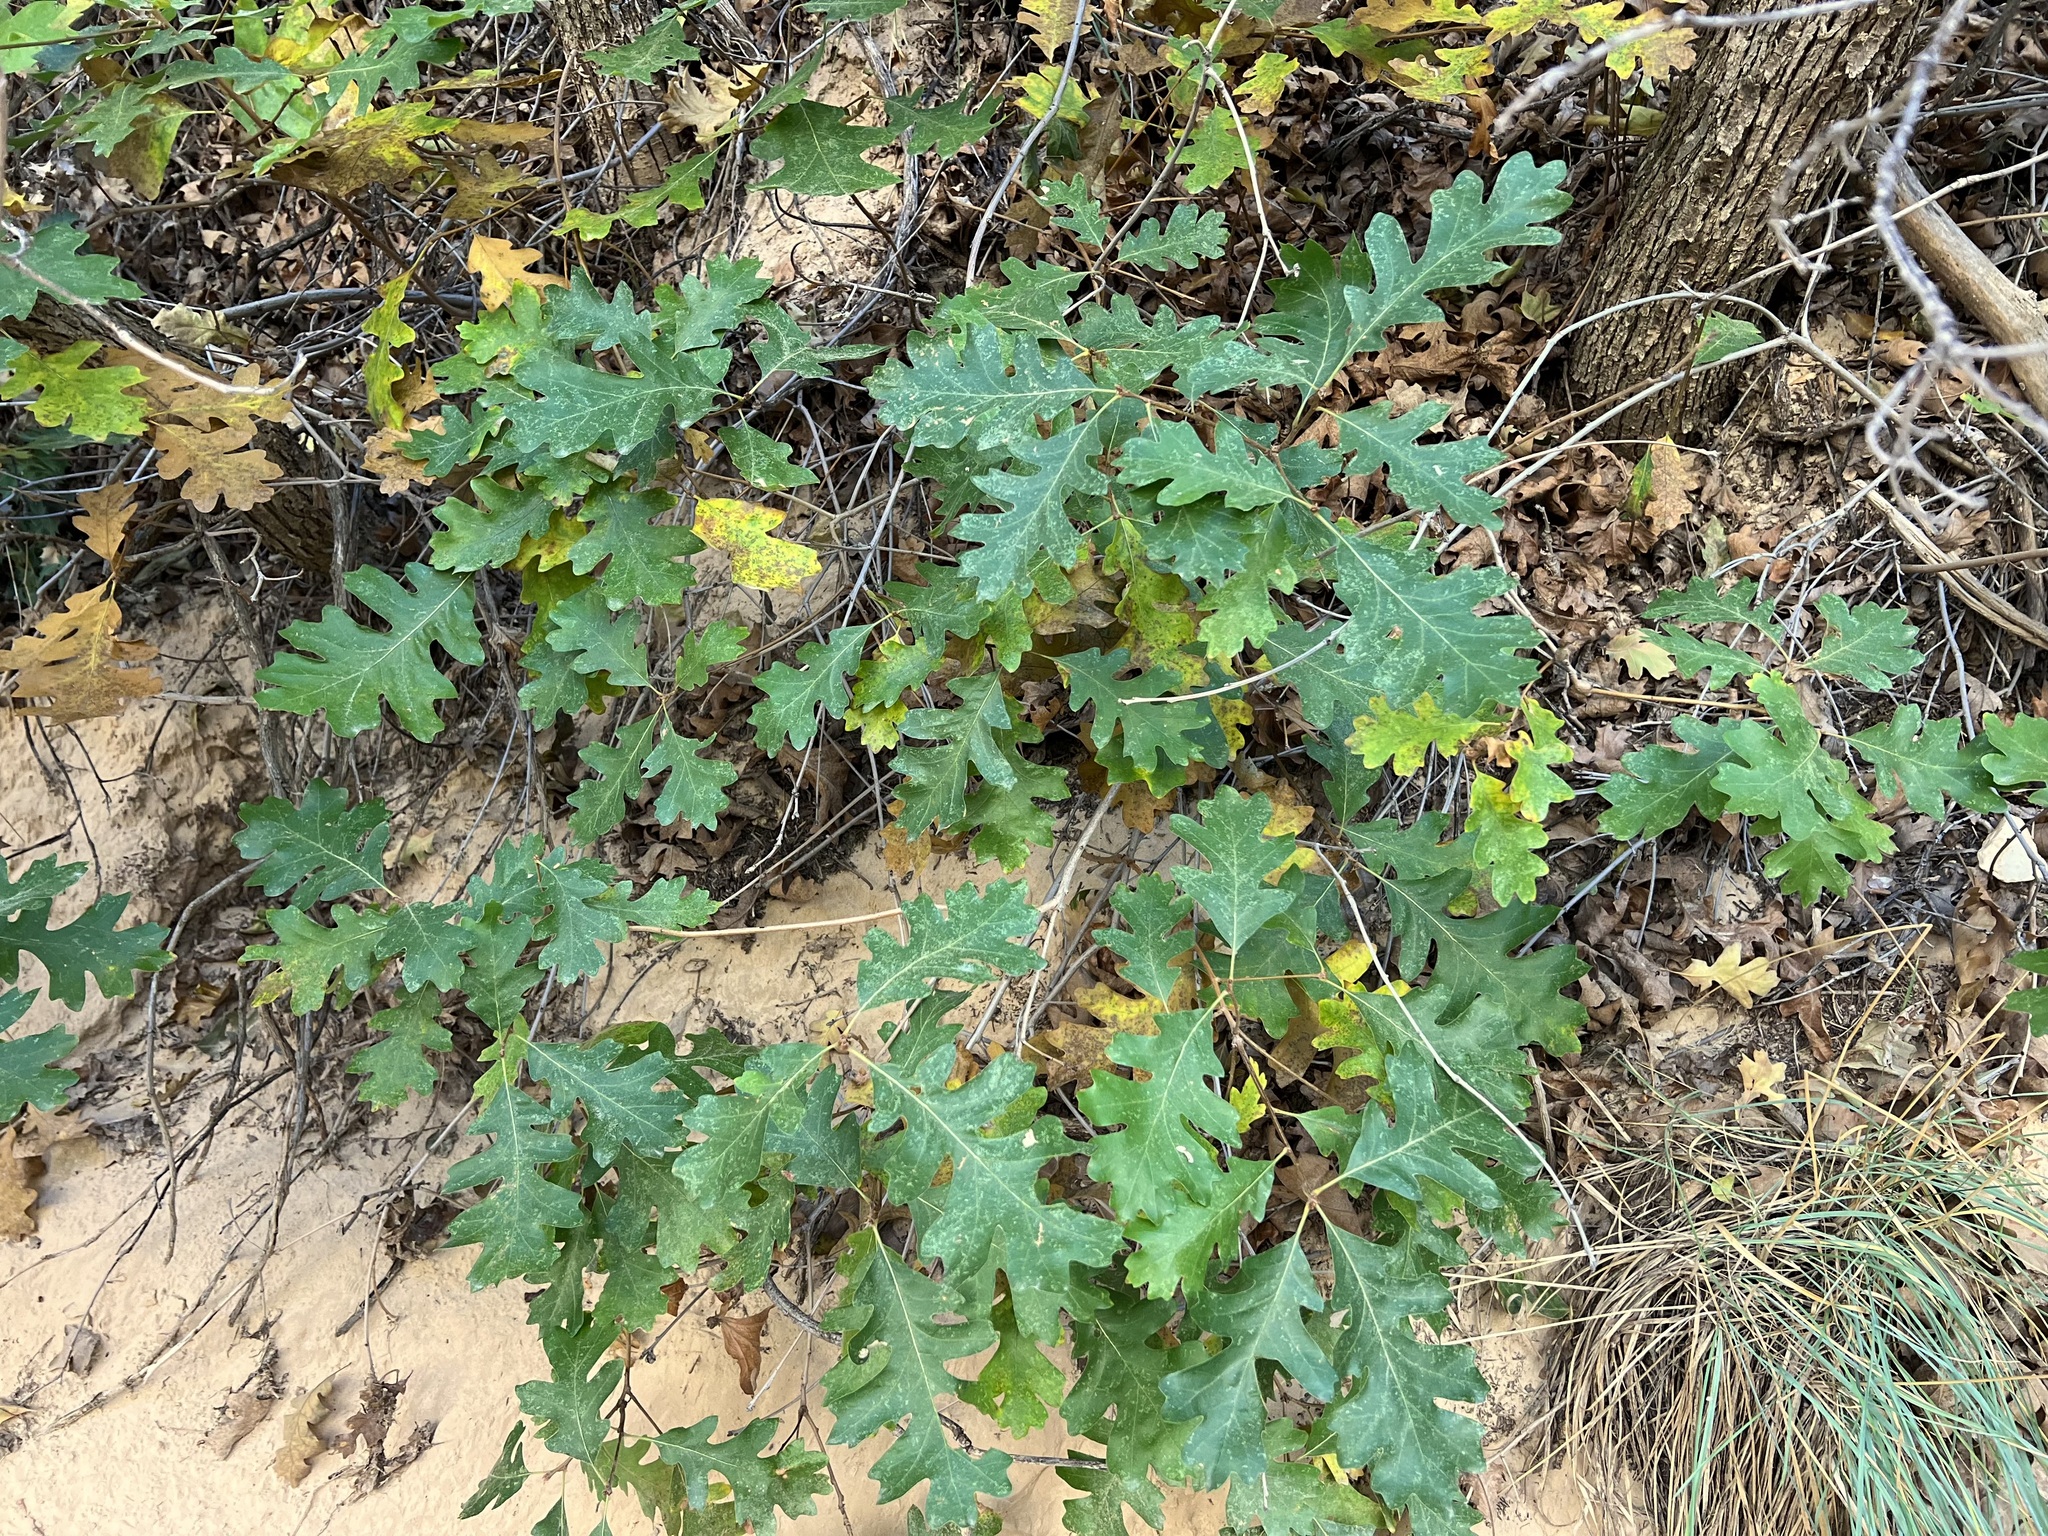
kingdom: Plantae
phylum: Tracheophyta
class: Magnoliopsida
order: Fagales
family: Fagaceae
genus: Quercus
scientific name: Quercus gambelii
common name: Gambel oak
